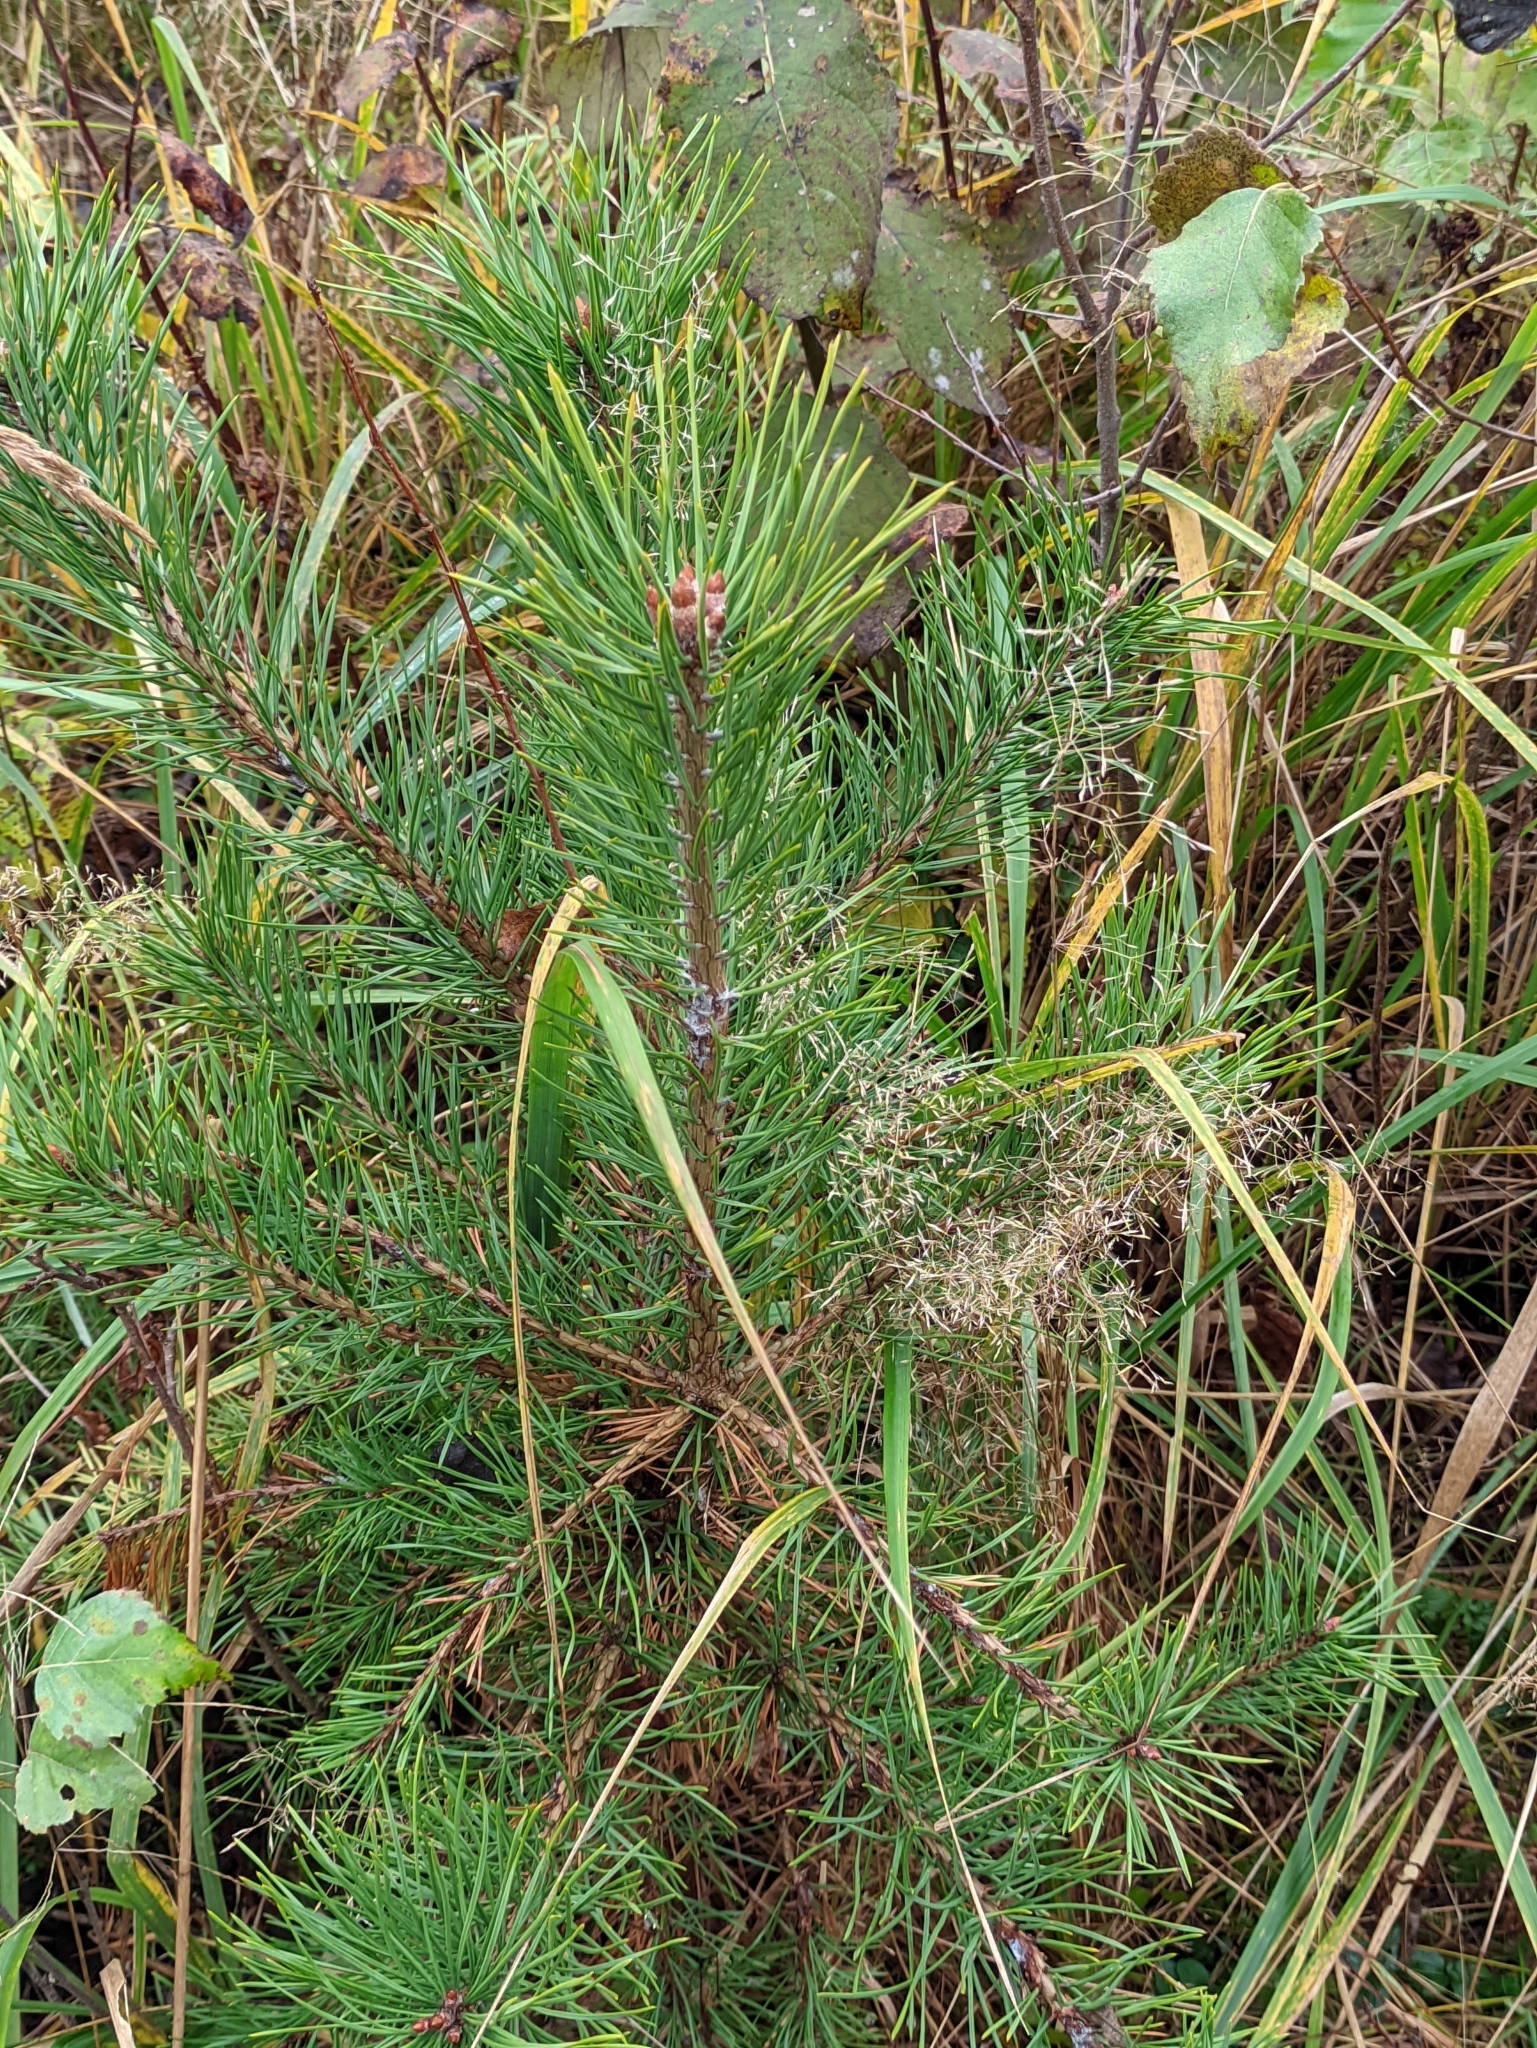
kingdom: Plantae
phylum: Tracheophyta
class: Pinopsida
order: Pinales
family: Pinaceae
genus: Pinus
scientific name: Pinus sylvestris
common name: Scots pine
